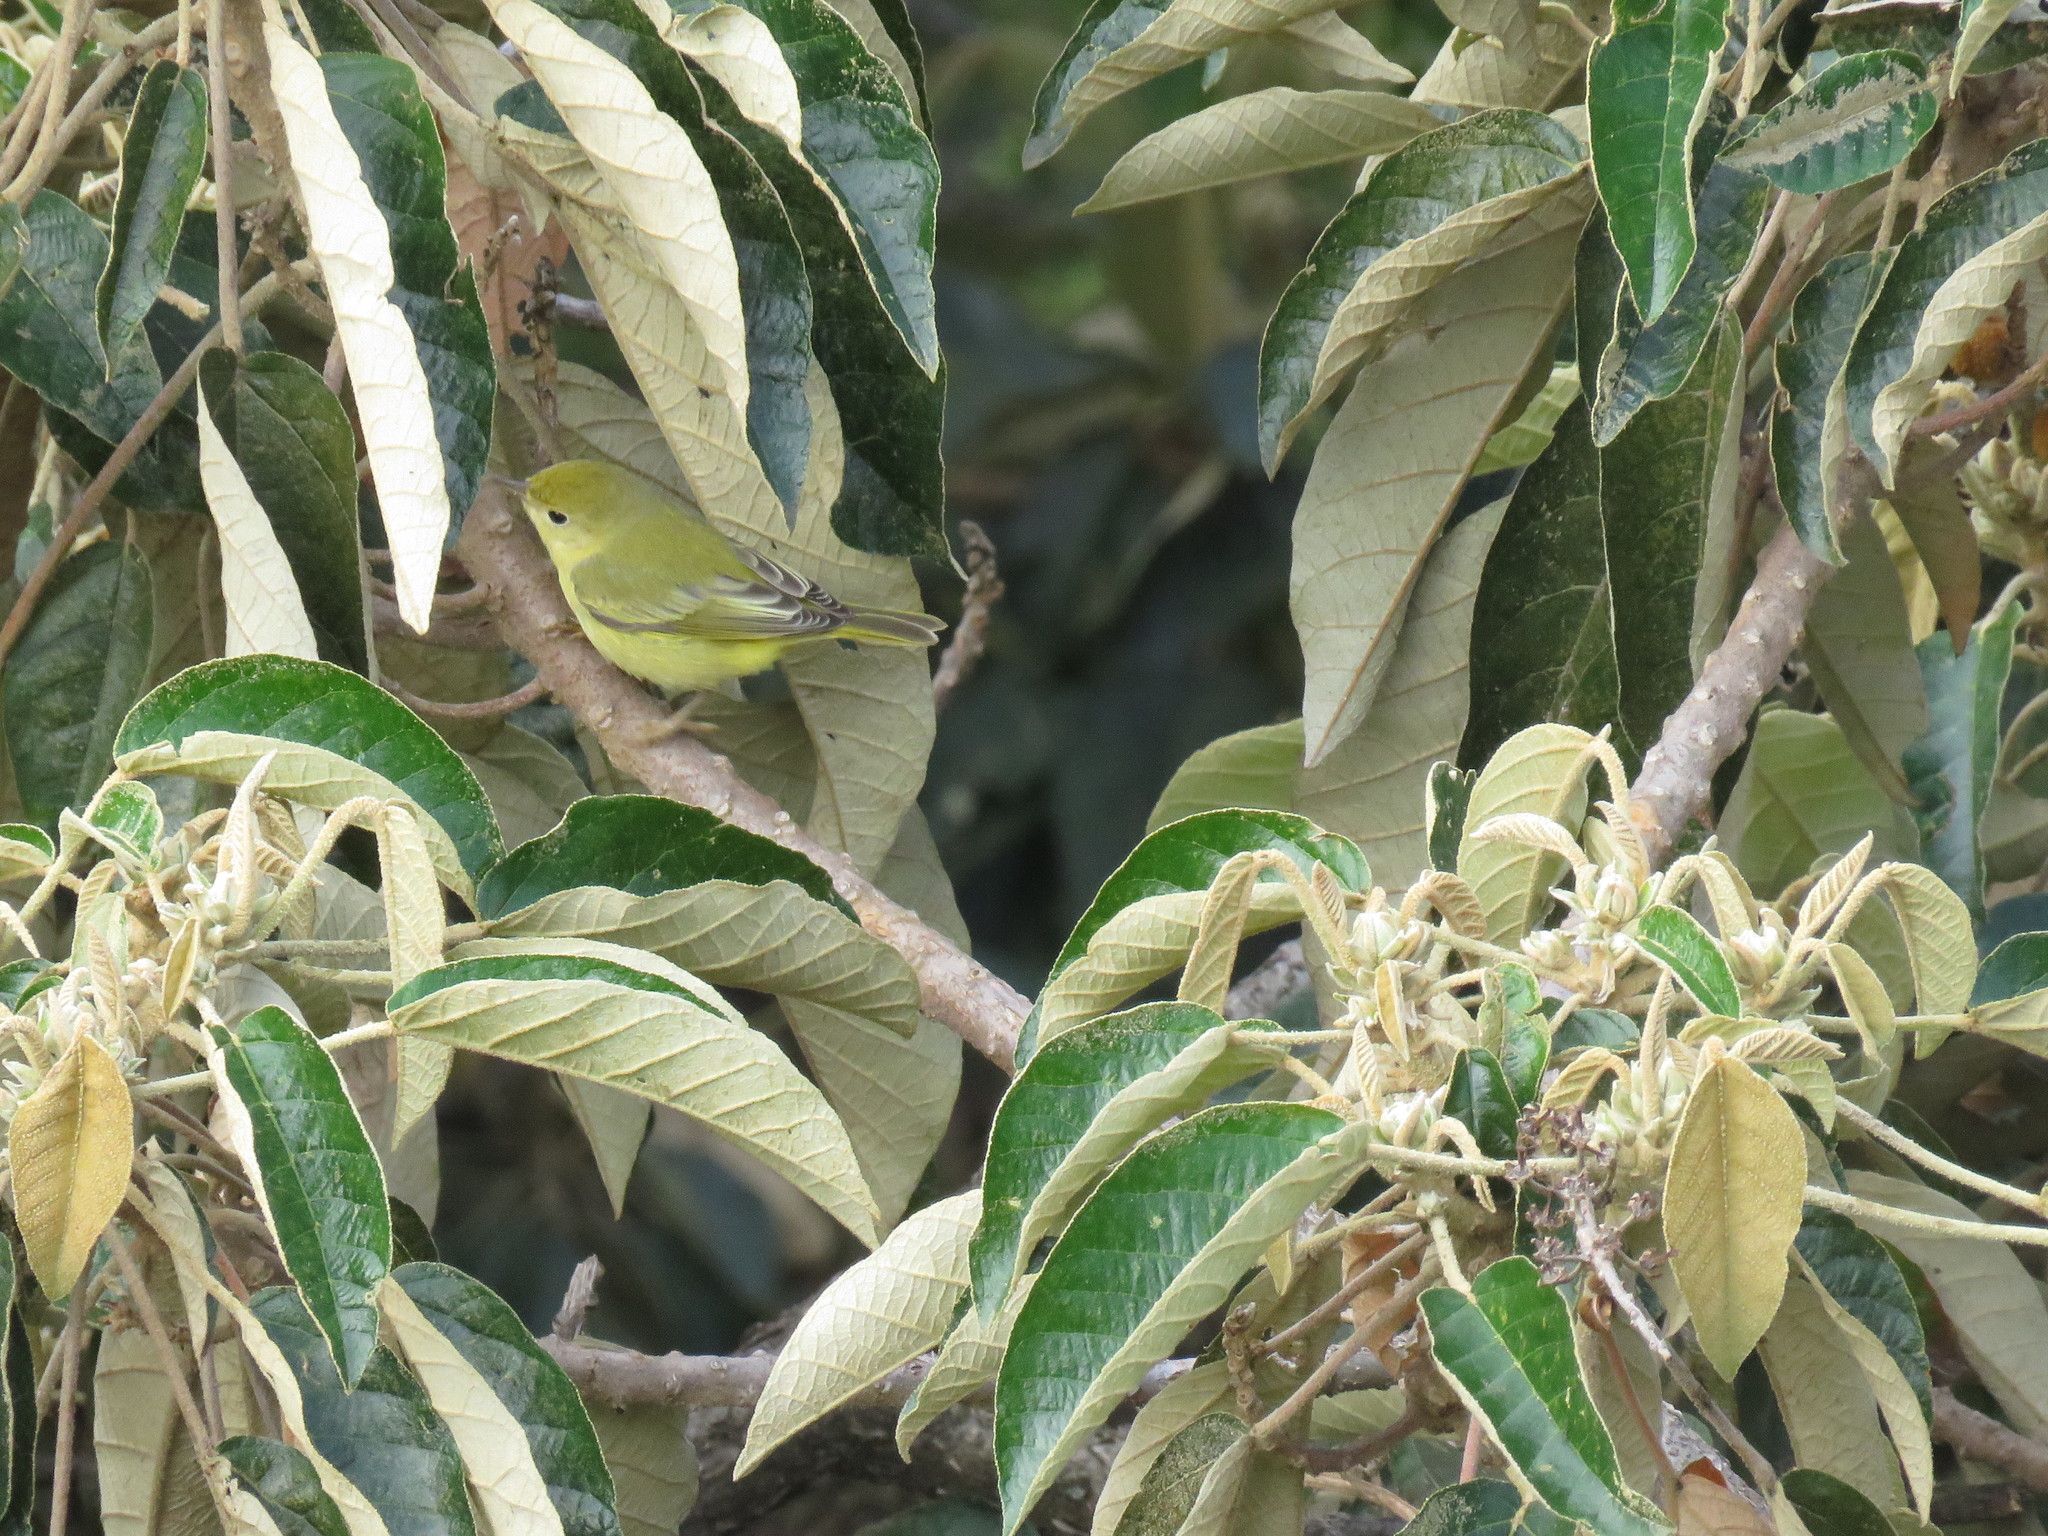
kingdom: Animalia
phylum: Chordata
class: Aves
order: Passeriformes
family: Parulidae
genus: Setophaga
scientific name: Setophaga petechia
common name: Yellow warbler
